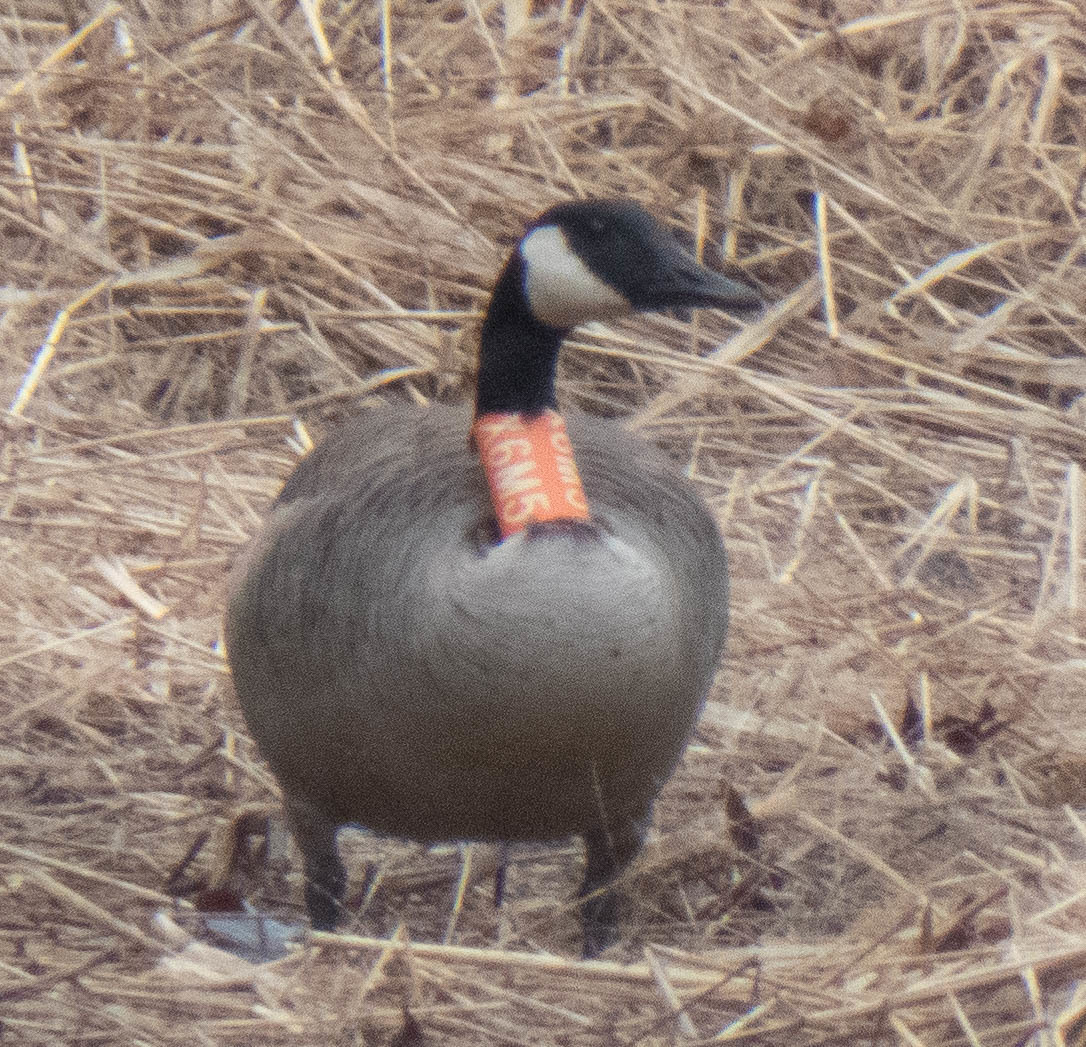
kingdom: Animalia
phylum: Chordata
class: Aves
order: Anseriformes
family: Anatidae
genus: Branta
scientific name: Branta canadensis
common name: Canada goose
